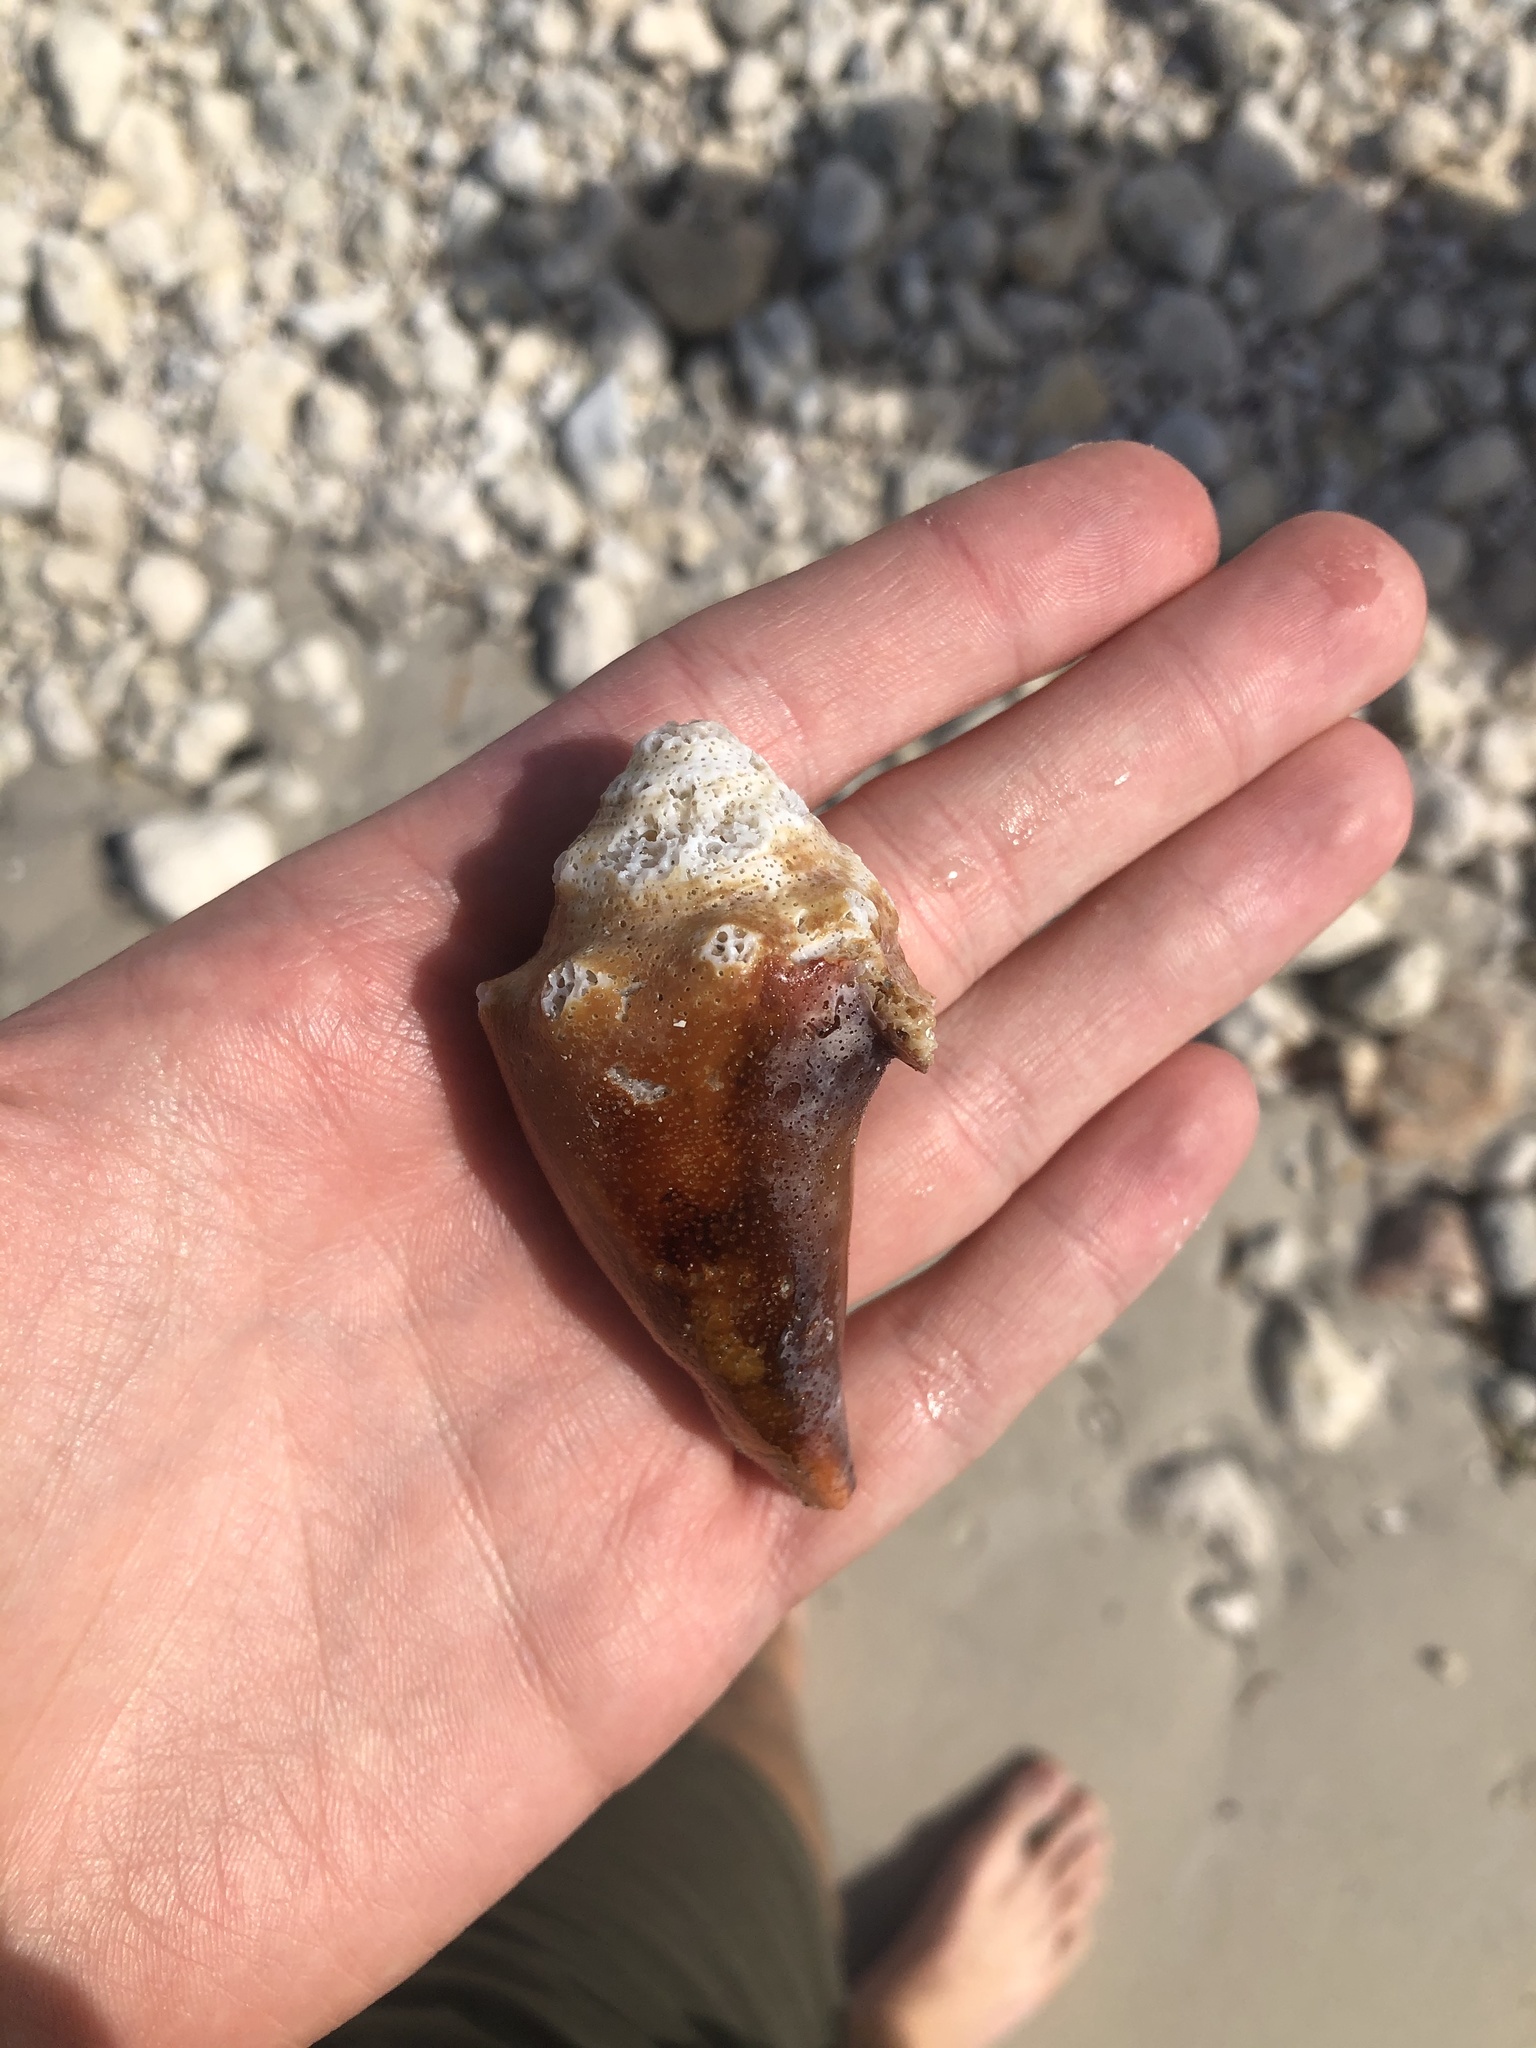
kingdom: Animalia
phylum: Mollusca
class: Gastropoda
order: Littorinimorpha
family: Strombidae
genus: Strombus
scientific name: Strombus alatus
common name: Florida fighting conch
